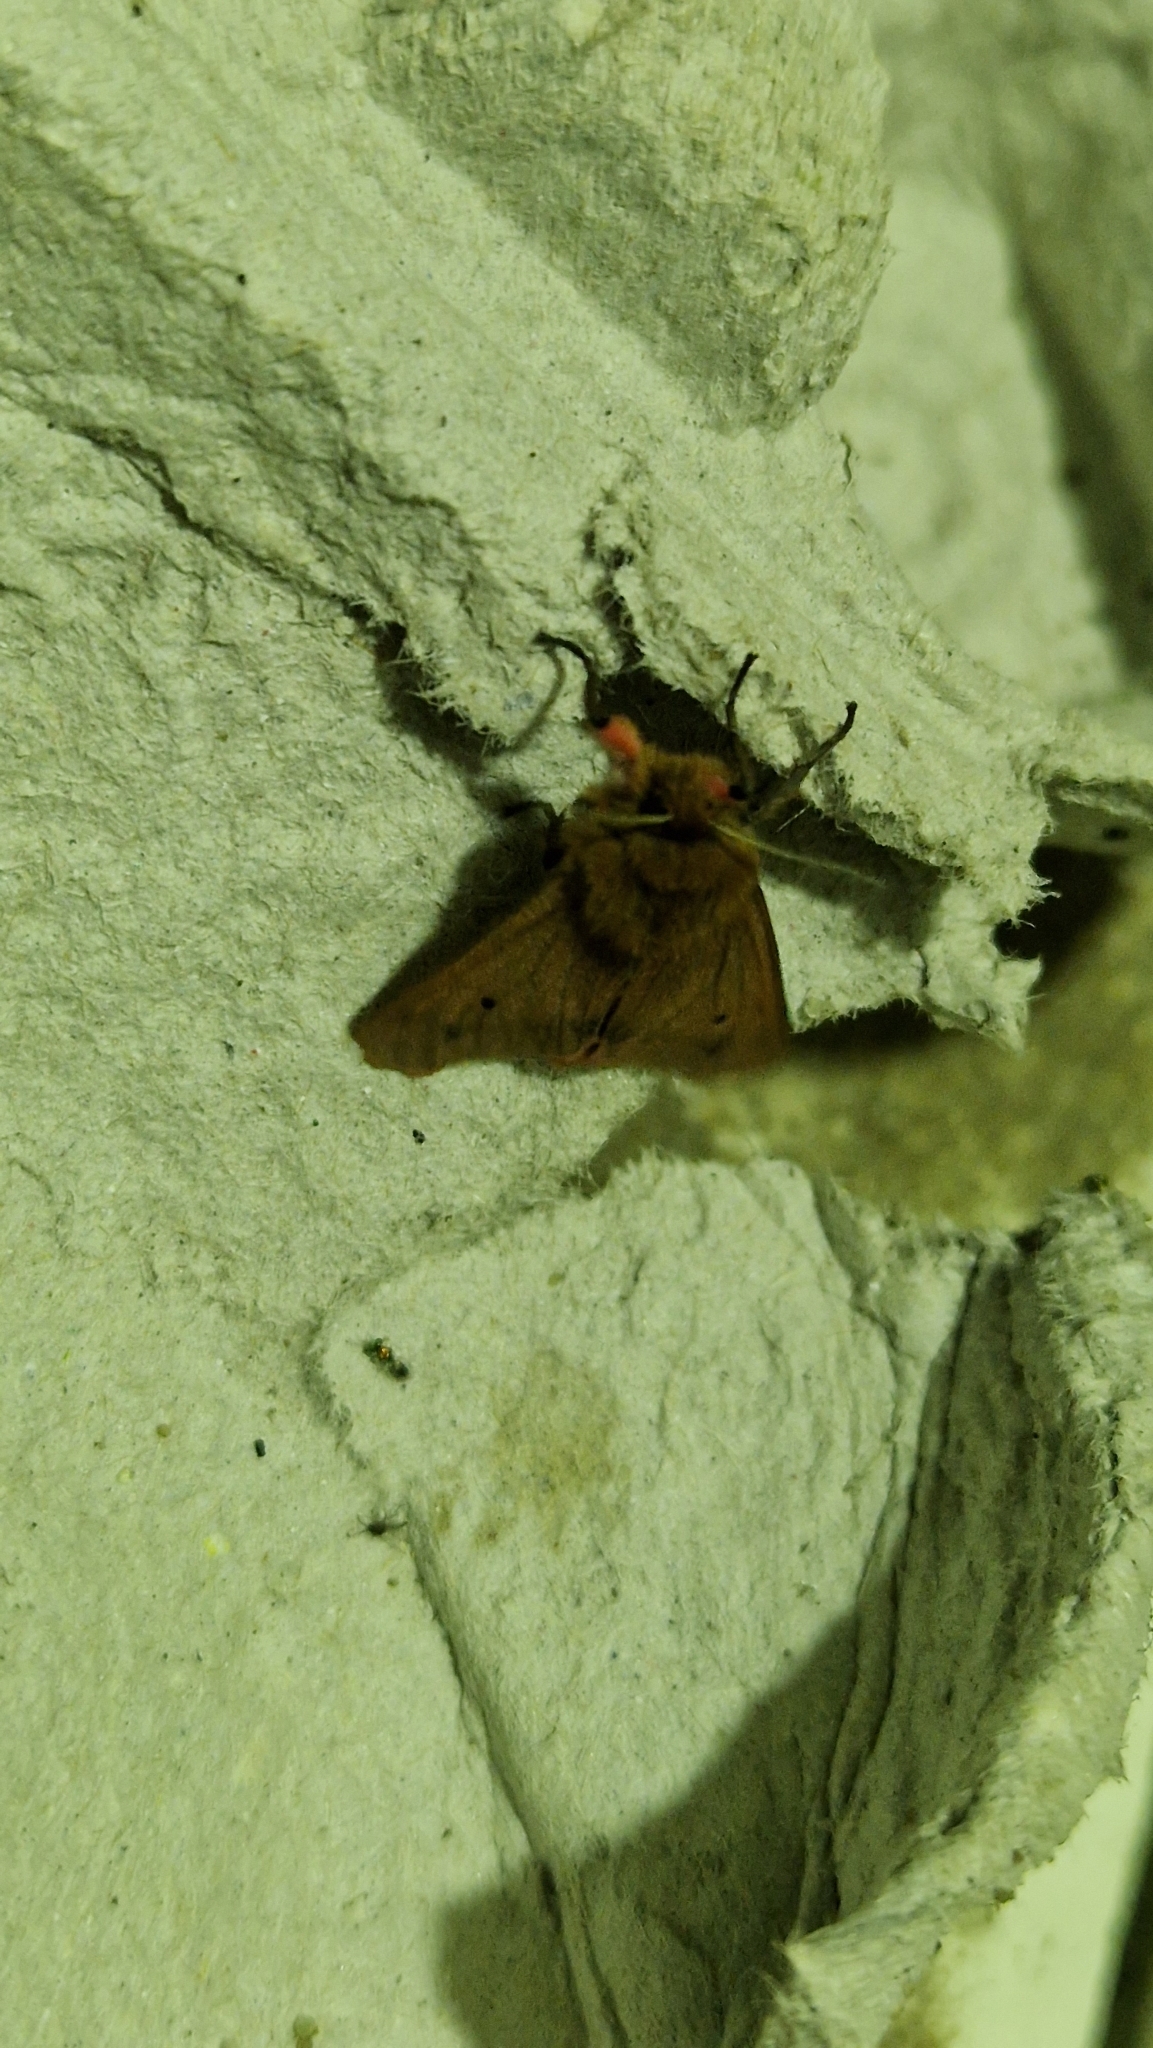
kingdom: Animalia
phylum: Arthropoda
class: Insecta
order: Lepidoptera
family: Erebidae
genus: Phragmatobia
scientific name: Phragmatobia fuliginosa
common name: Ruby tiger
